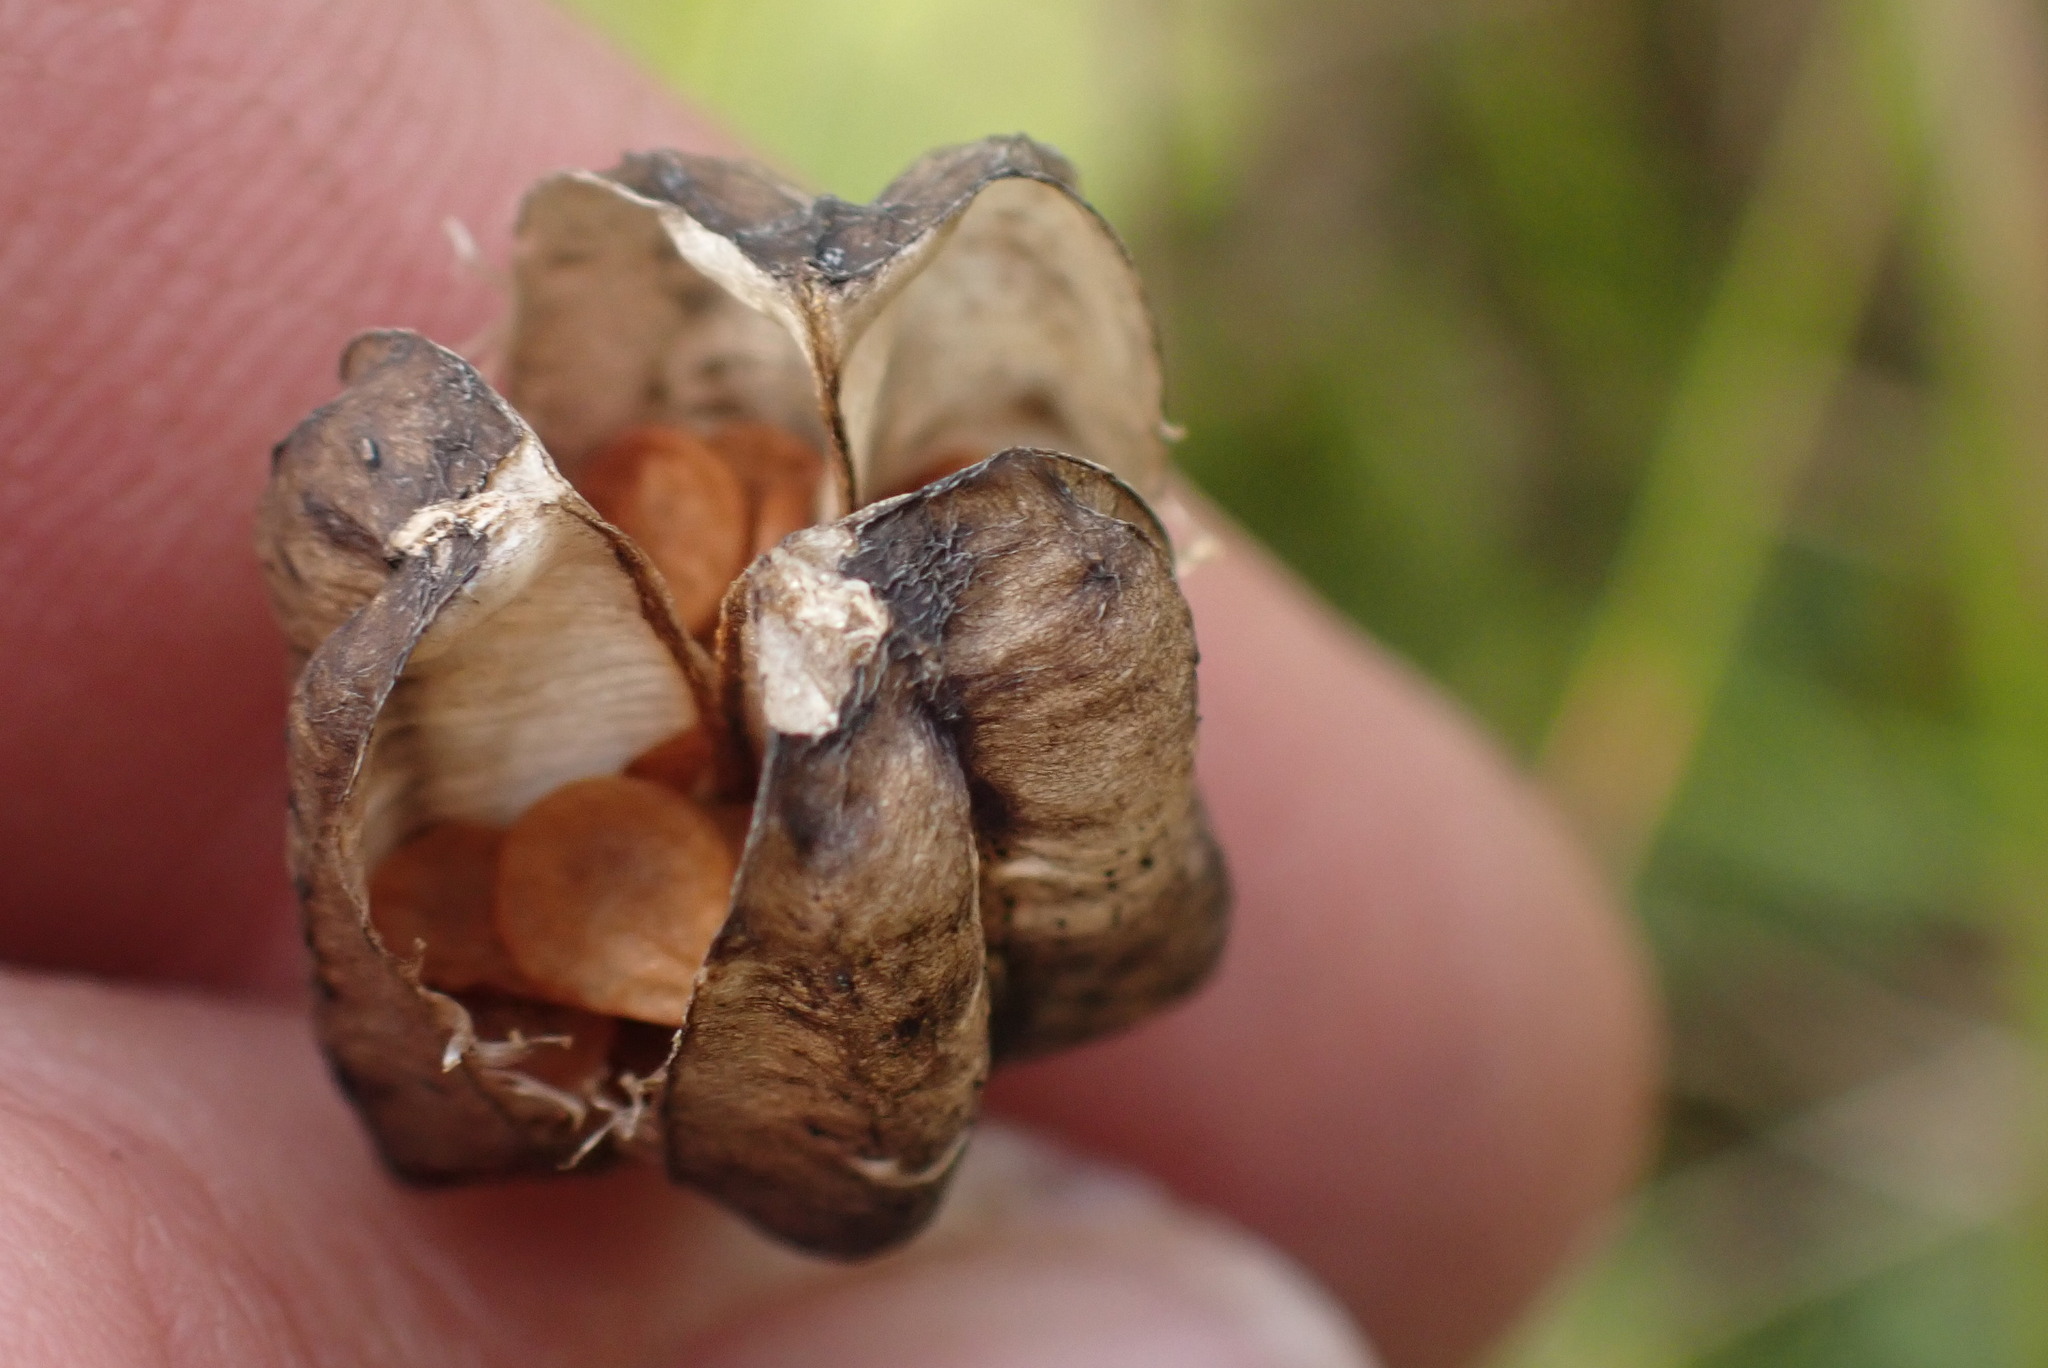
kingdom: Plantae
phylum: Tracheophyta
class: Liliopsida
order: Liliales
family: Liliaceae
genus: Fritillaria
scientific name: Fritillaria camschatcensis
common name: Kamchatka fritillary
